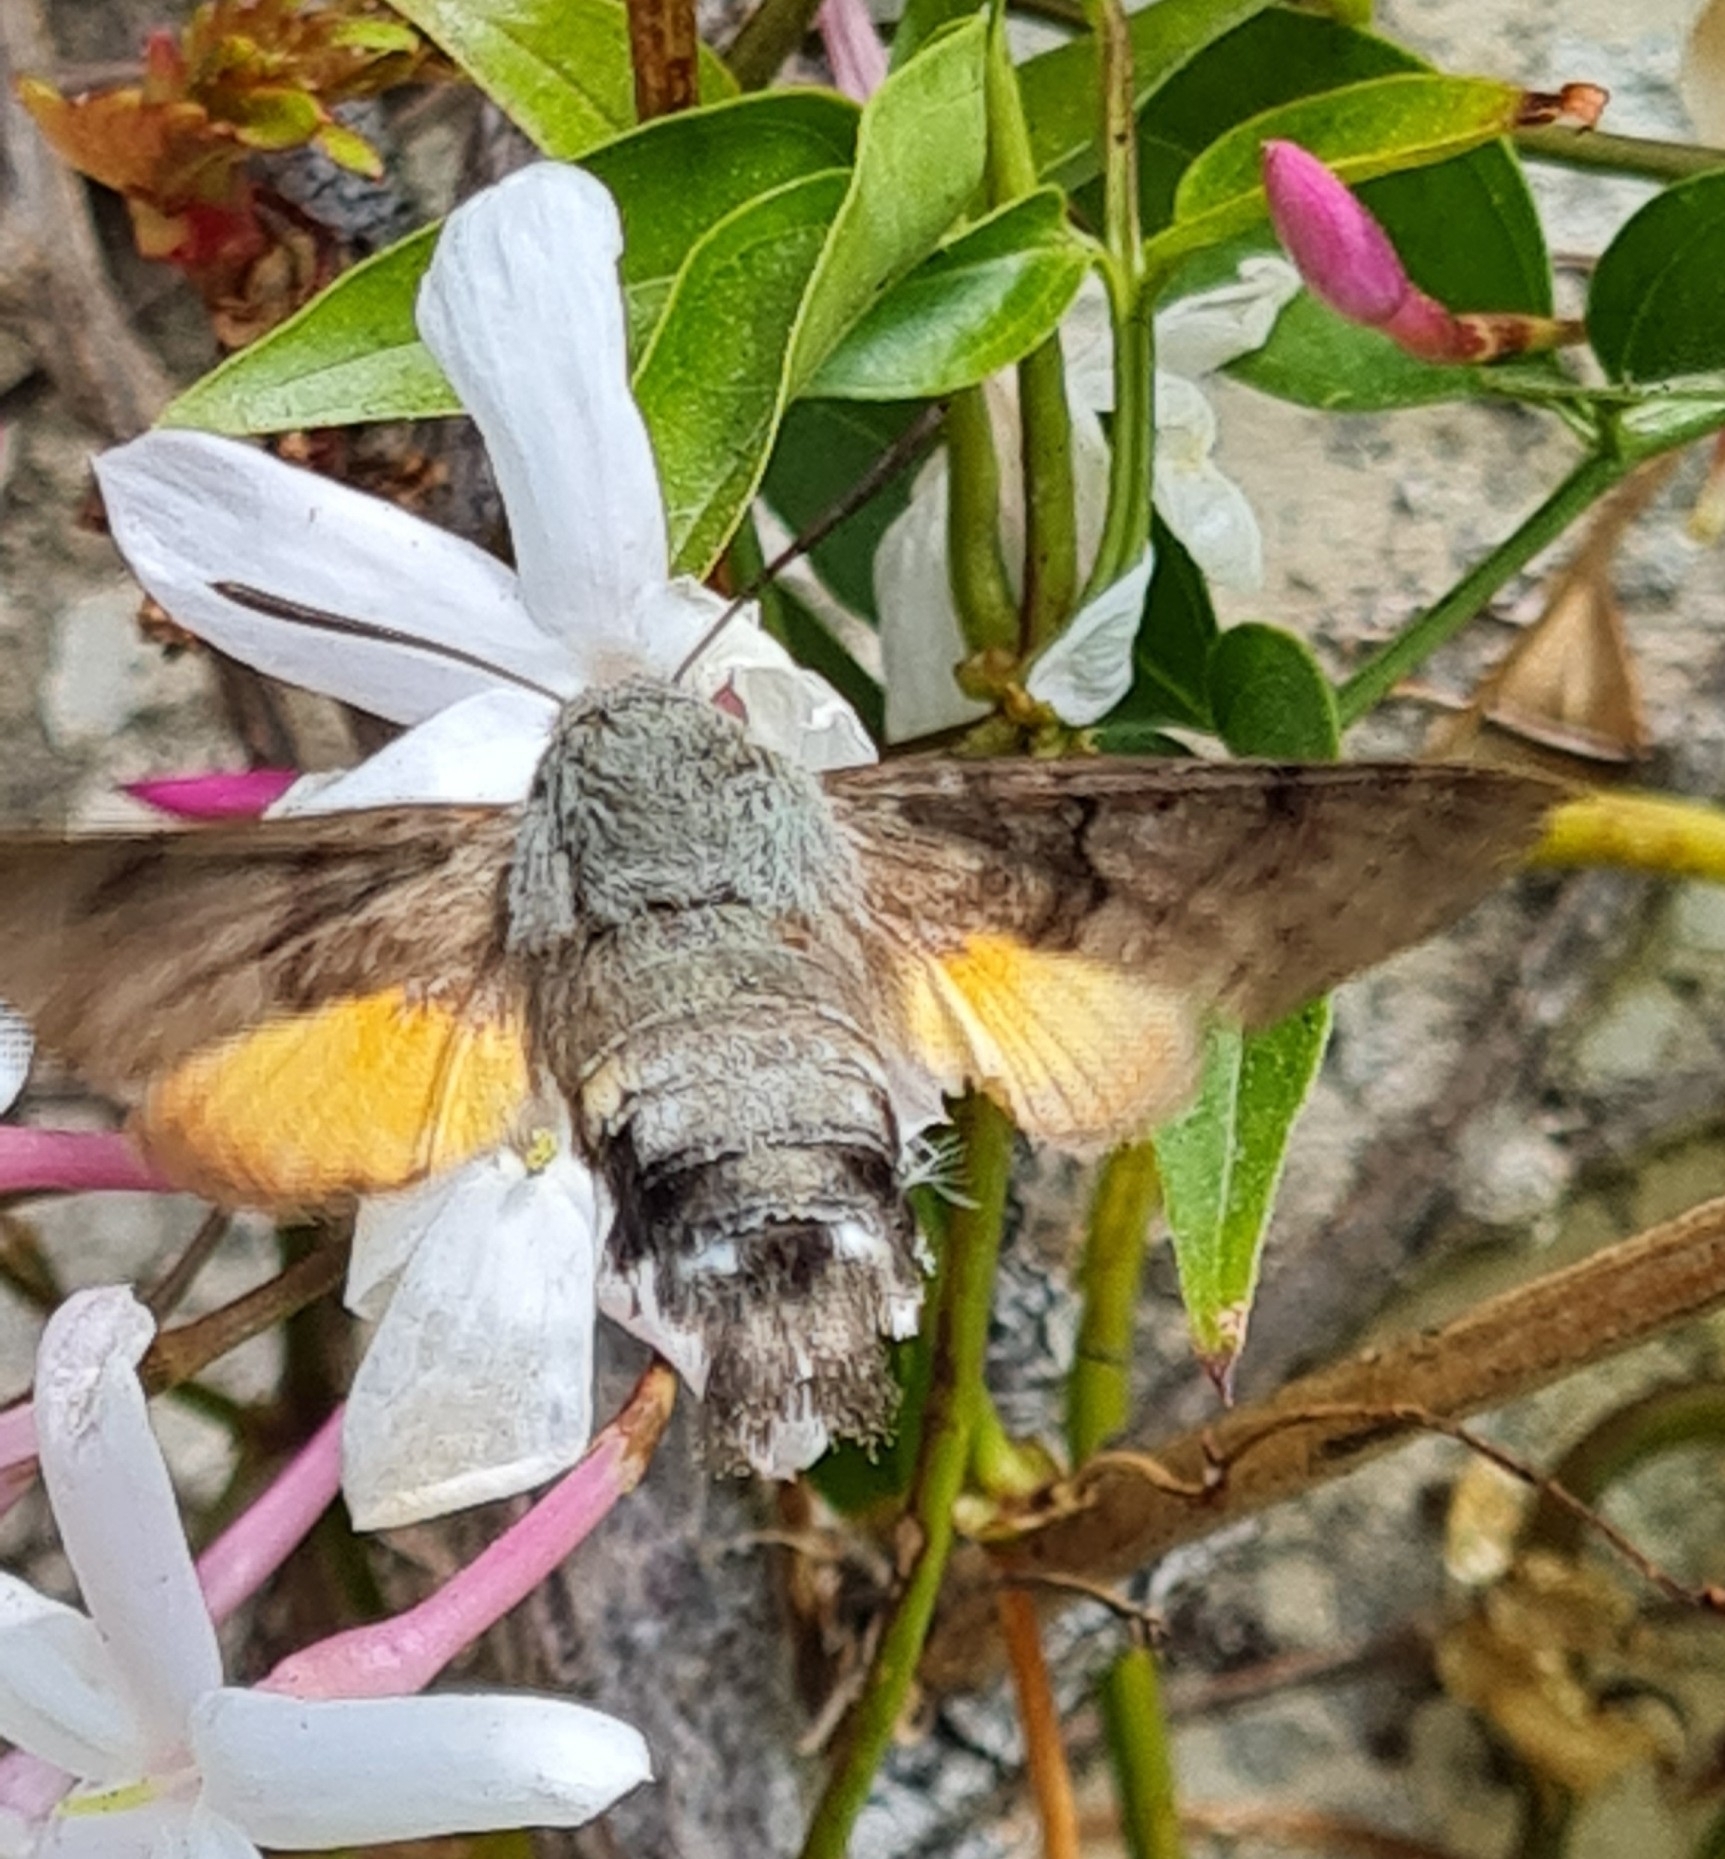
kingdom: Animalia
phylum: Arthropoda
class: Insecta
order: Lepidoptera
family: Sphingidae
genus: Macroglossum
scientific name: Macroglossum stellatarum
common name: Humming-bird hawk-moth
